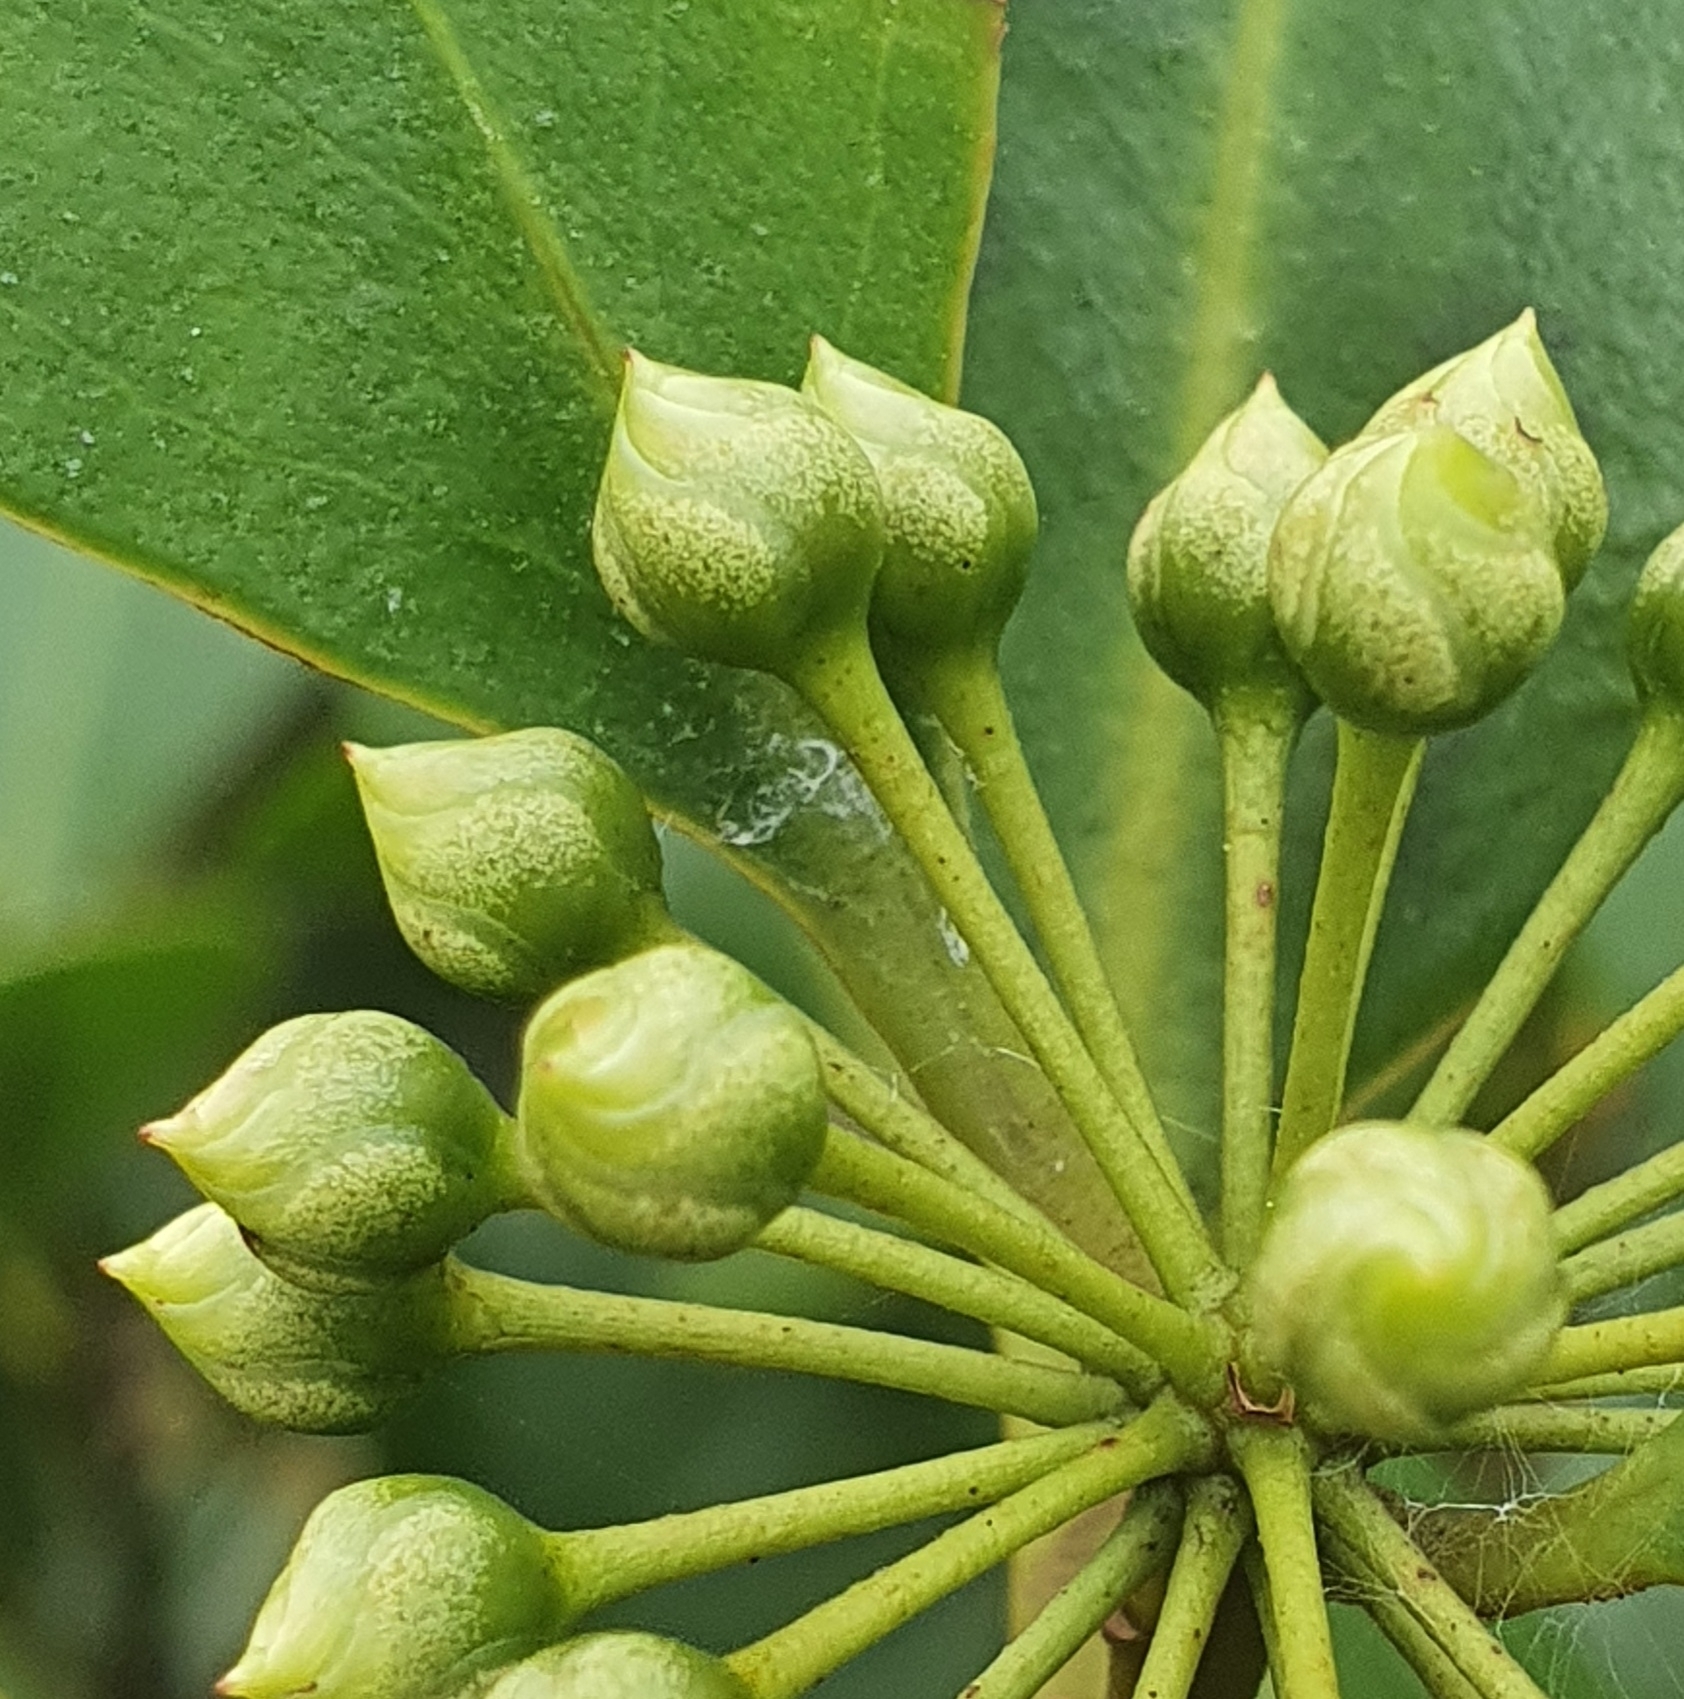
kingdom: Plantae
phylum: Tracheophyta
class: Magnoliopsida
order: Ericales
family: Primulaceae
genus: Aegiceras
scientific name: Aegiceras corniculatum
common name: River mangrove
